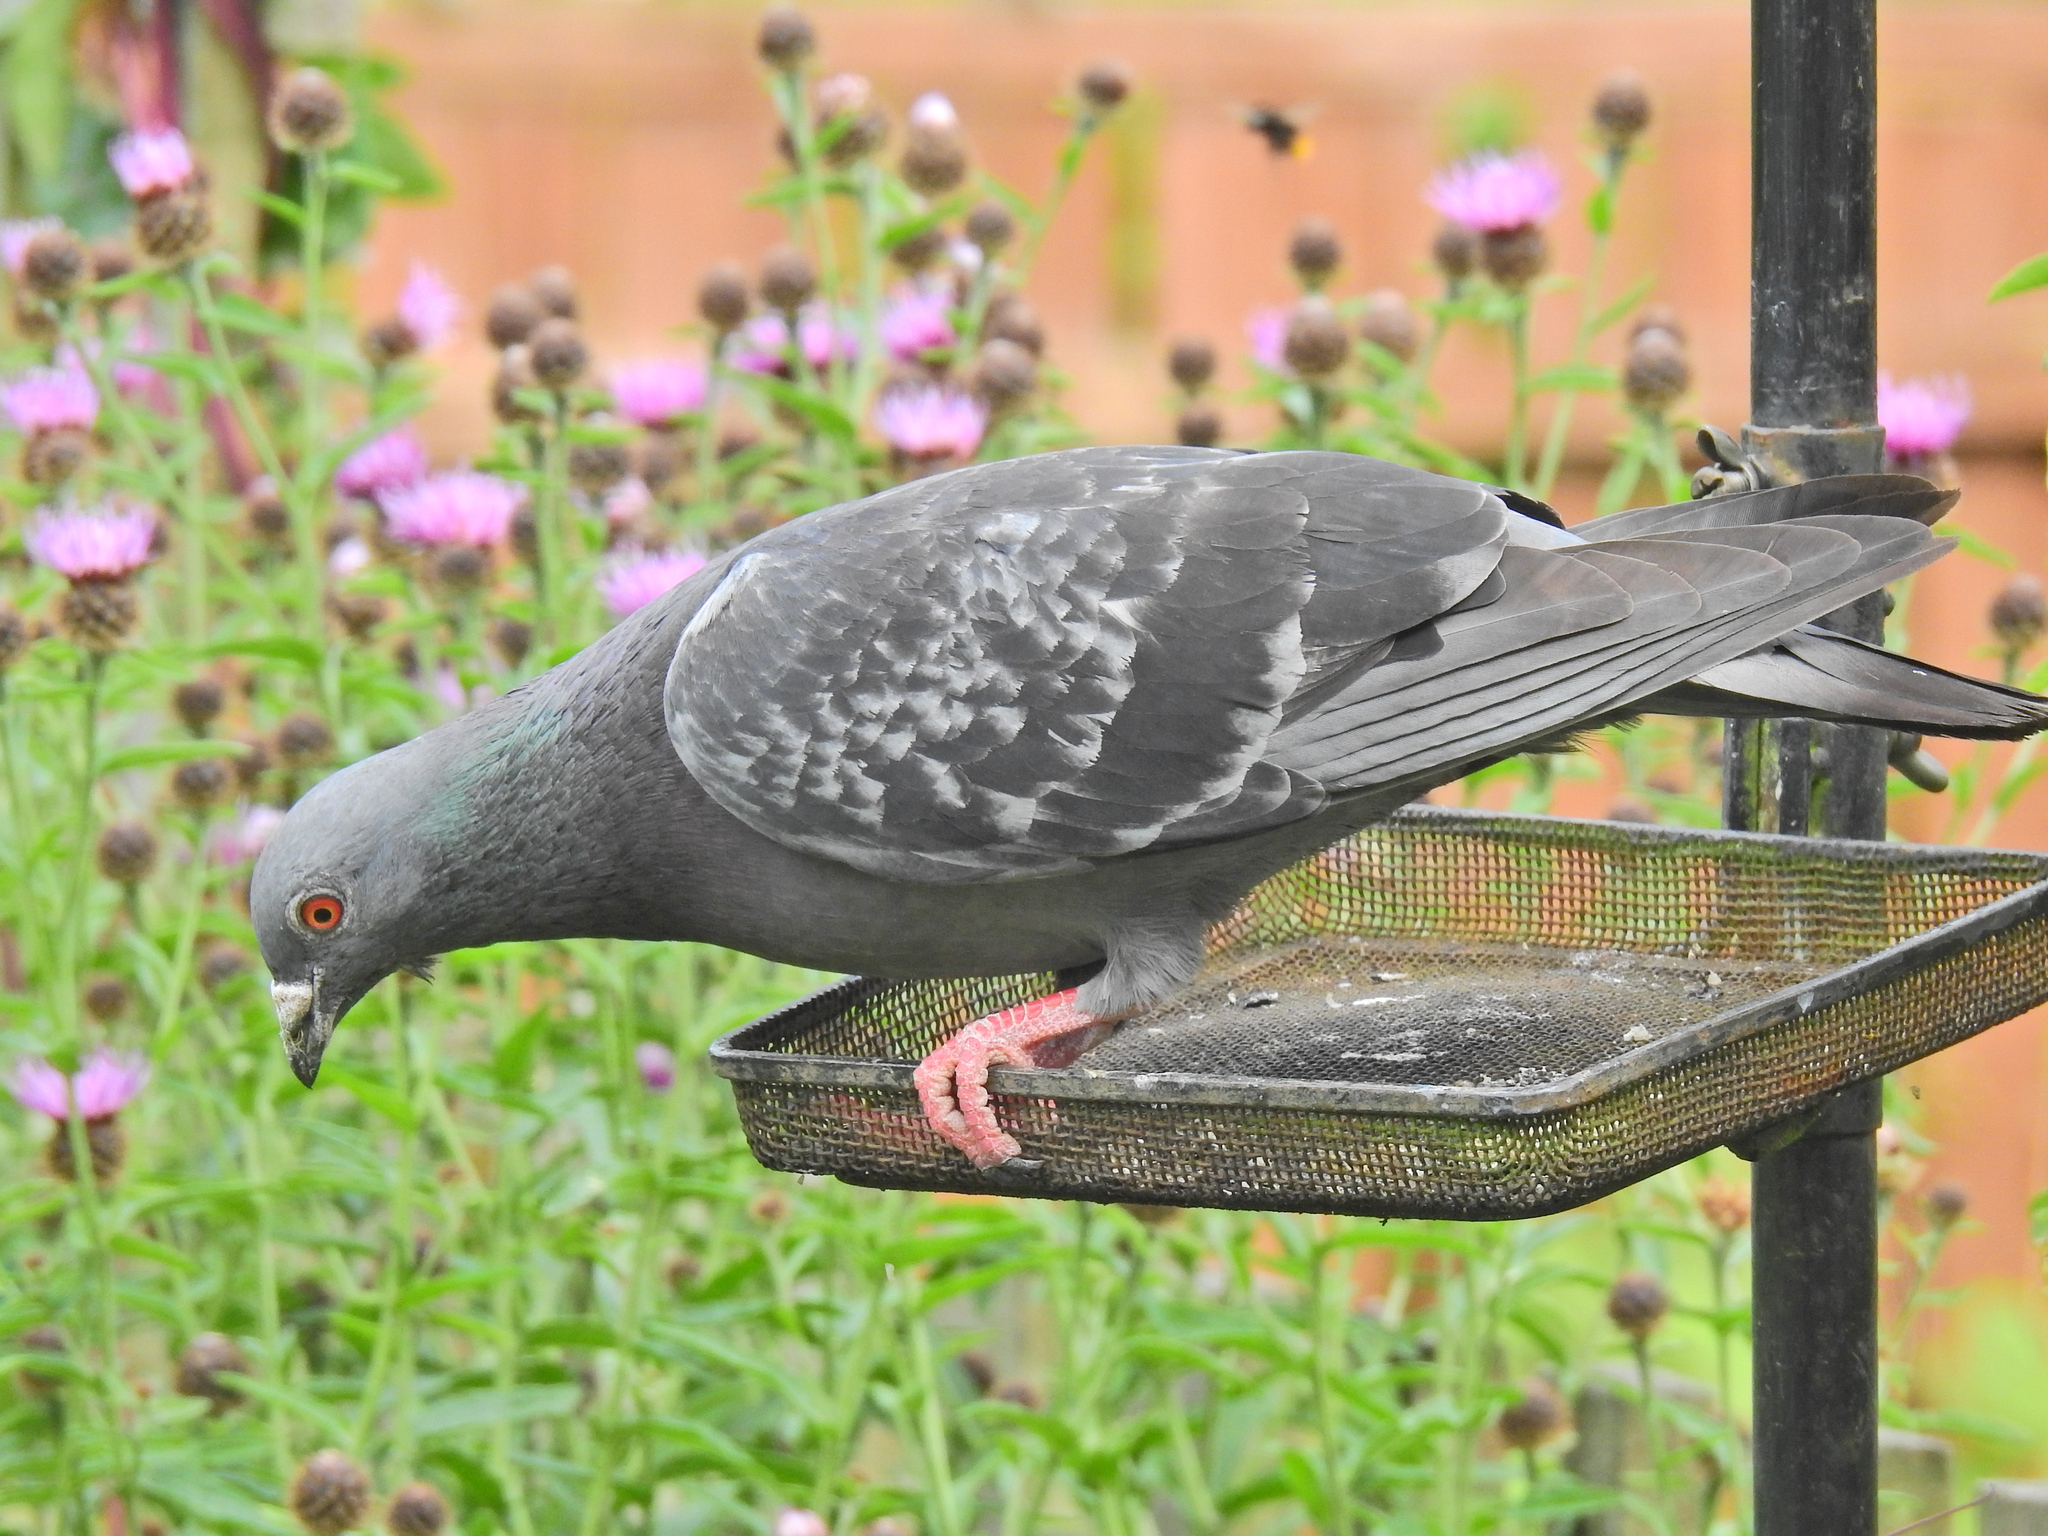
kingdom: Animalia
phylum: Chordata
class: Aves
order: Columbiformes
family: Columbidae
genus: Columba
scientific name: Columba livia
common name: Rock pigeon
